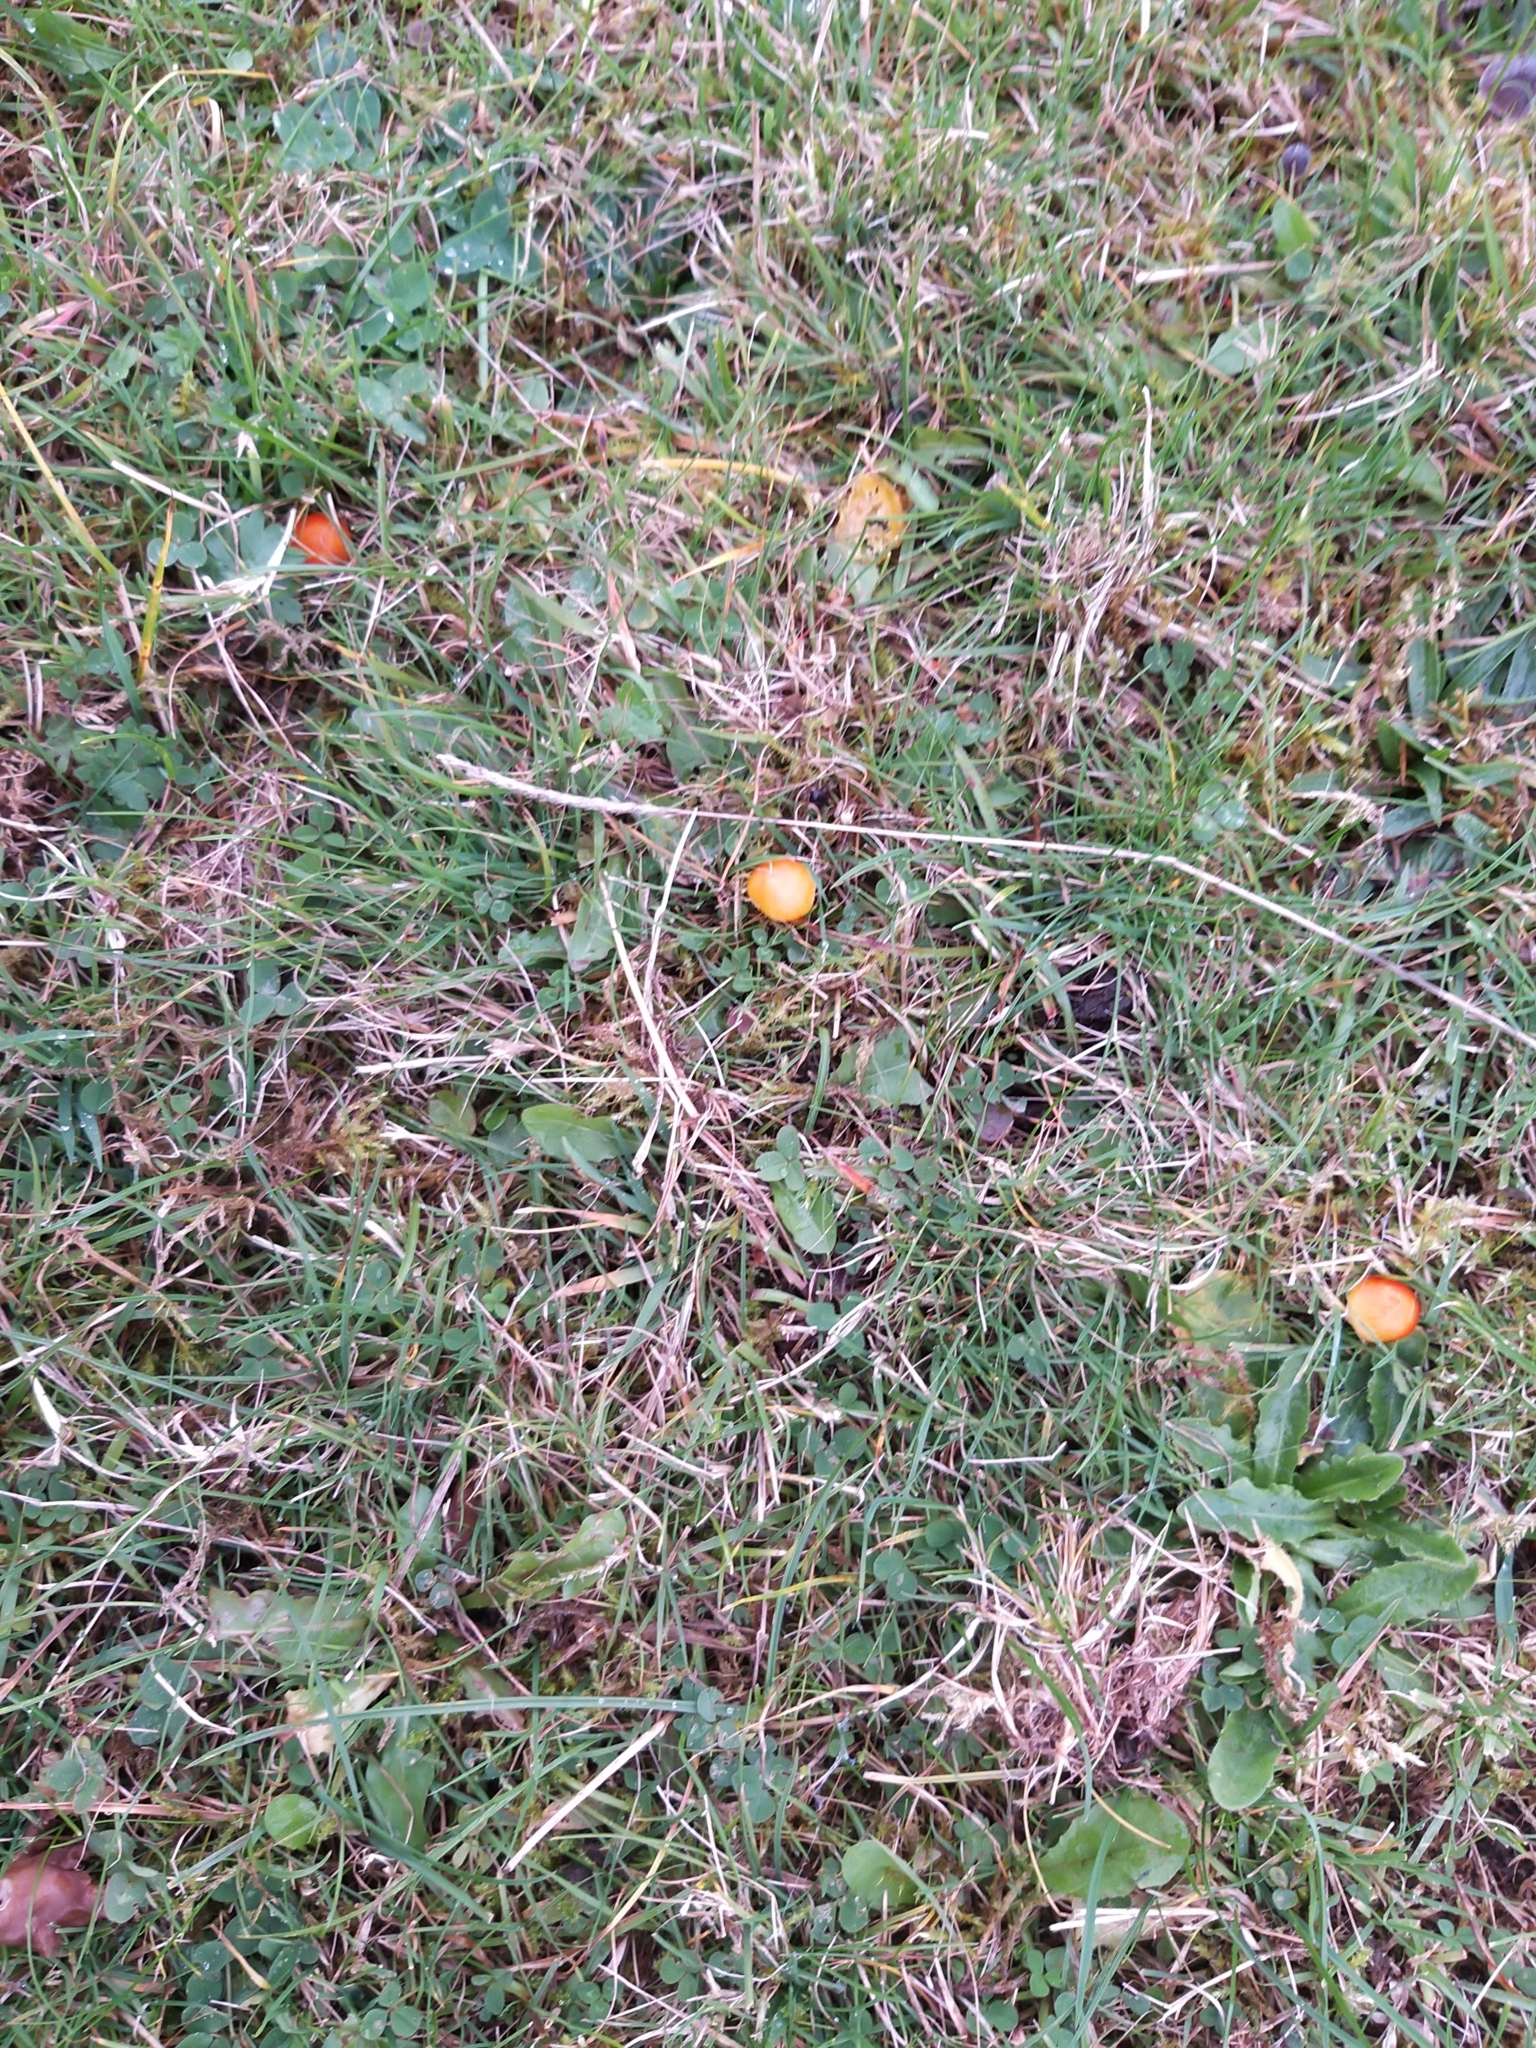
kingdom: Fungi
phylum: Basidiomycota
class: Agaricomycetes
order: Agaricales
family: Hygrophoraceae
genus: Hygrocybe
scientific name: Hygrocybe insipida
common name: Spangle waxcap
